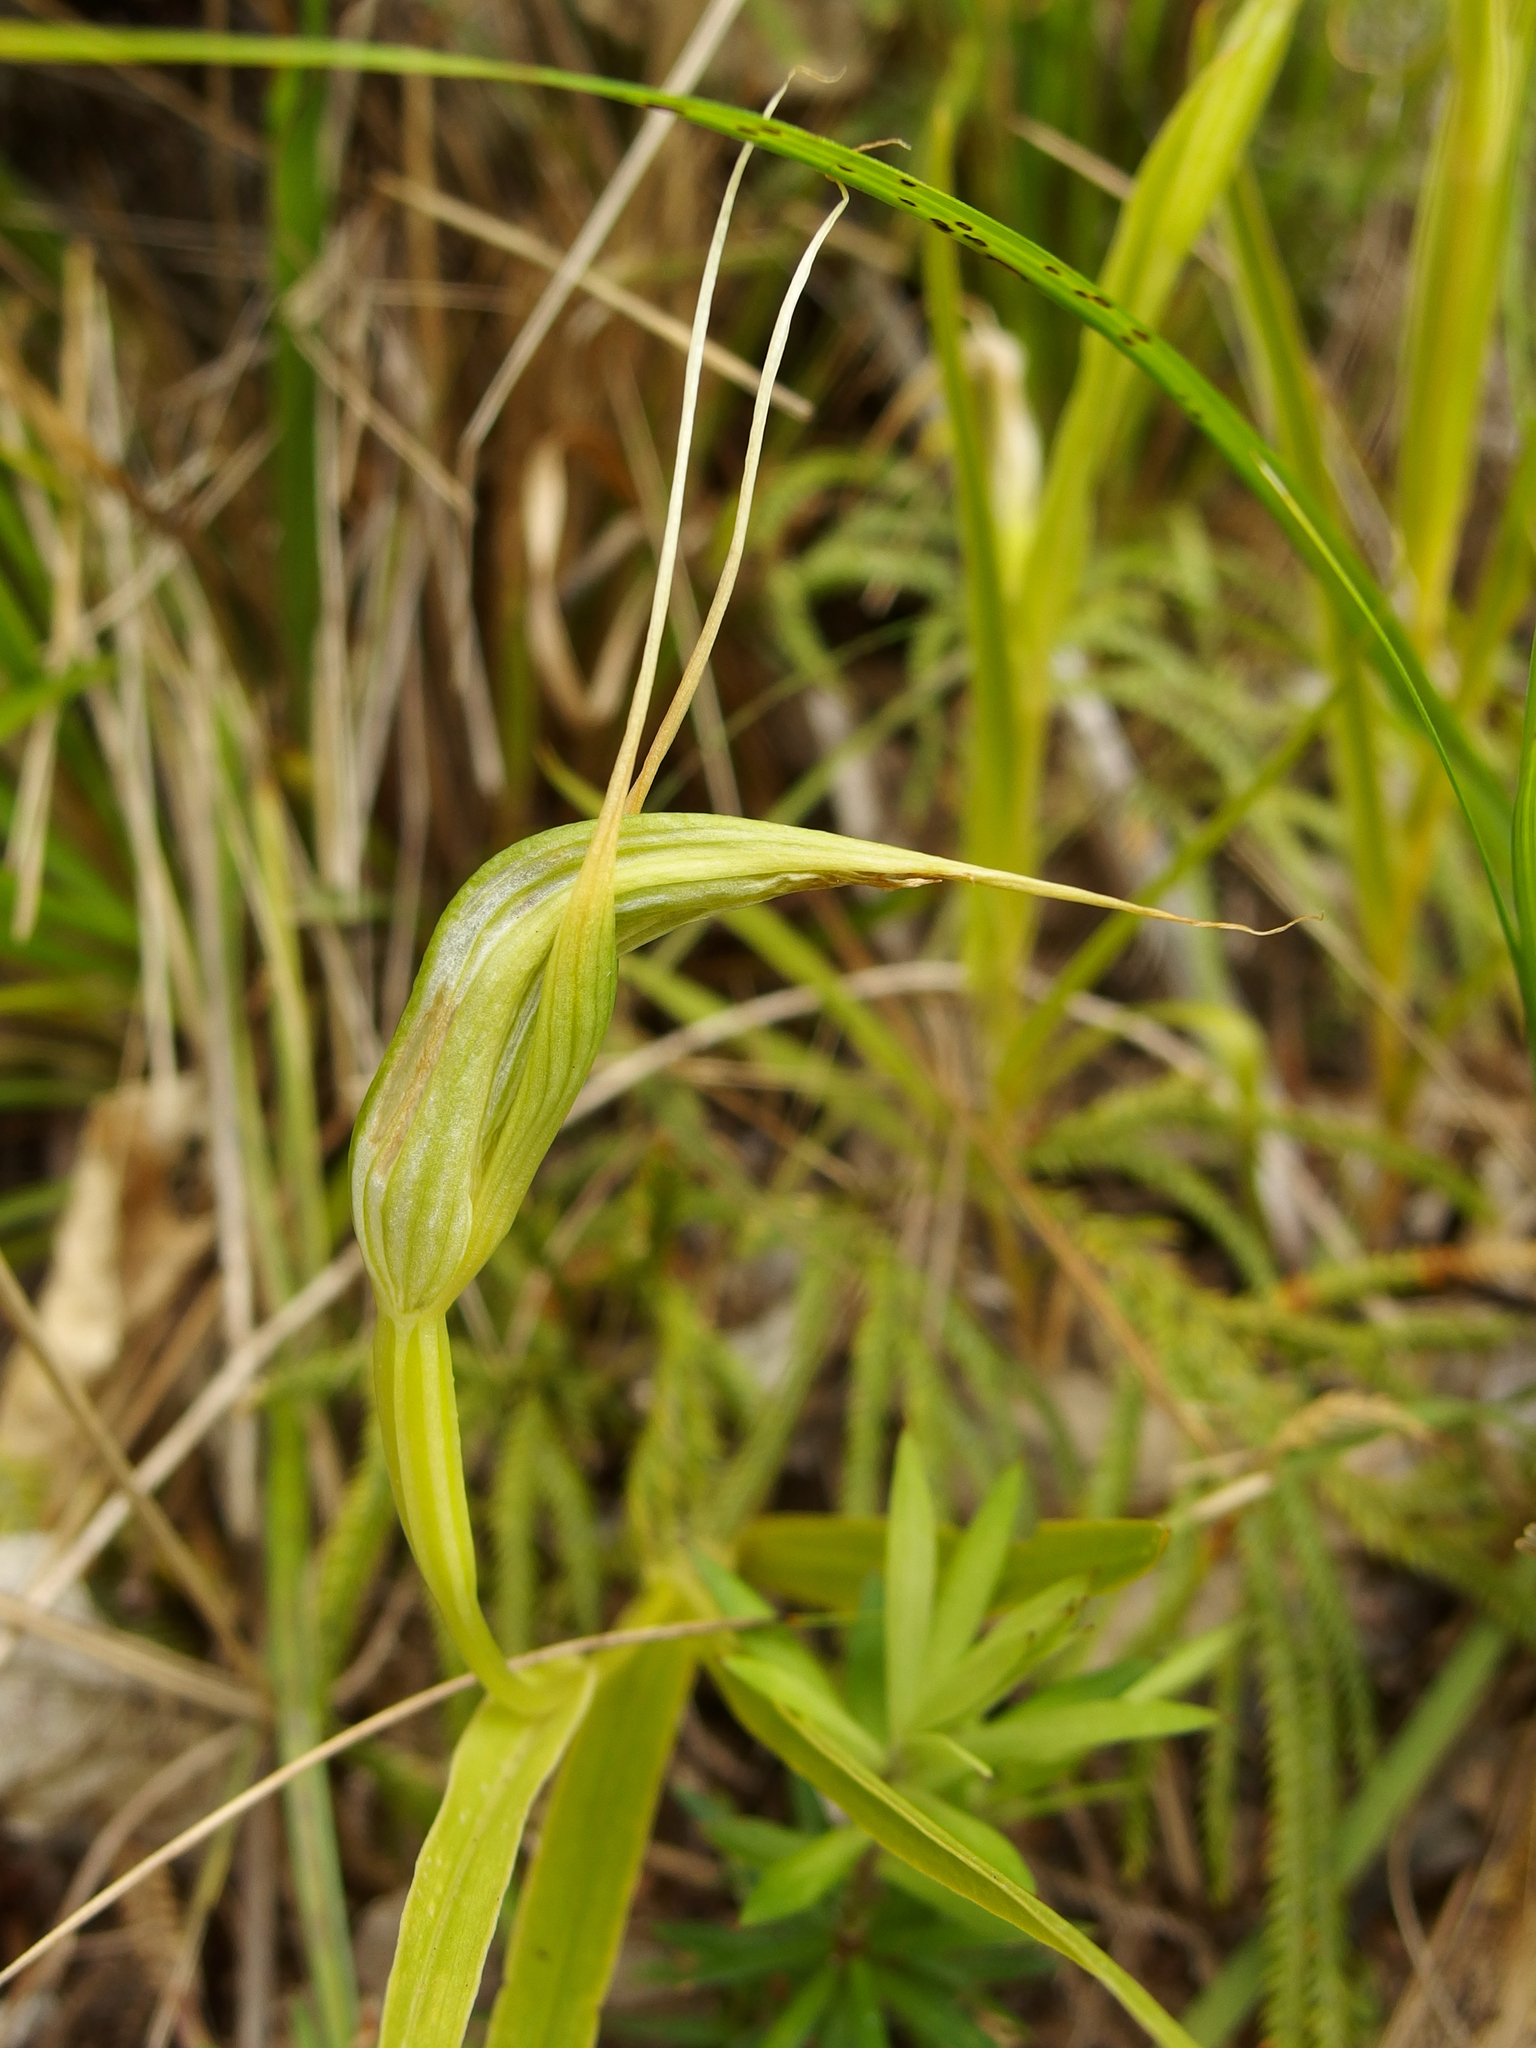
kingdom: Plantae
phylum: Tracheophyta
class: Liliopsida
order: Asparagales
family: Orchidaceae
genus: Pterostylis
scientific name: Pterostylis banksii
